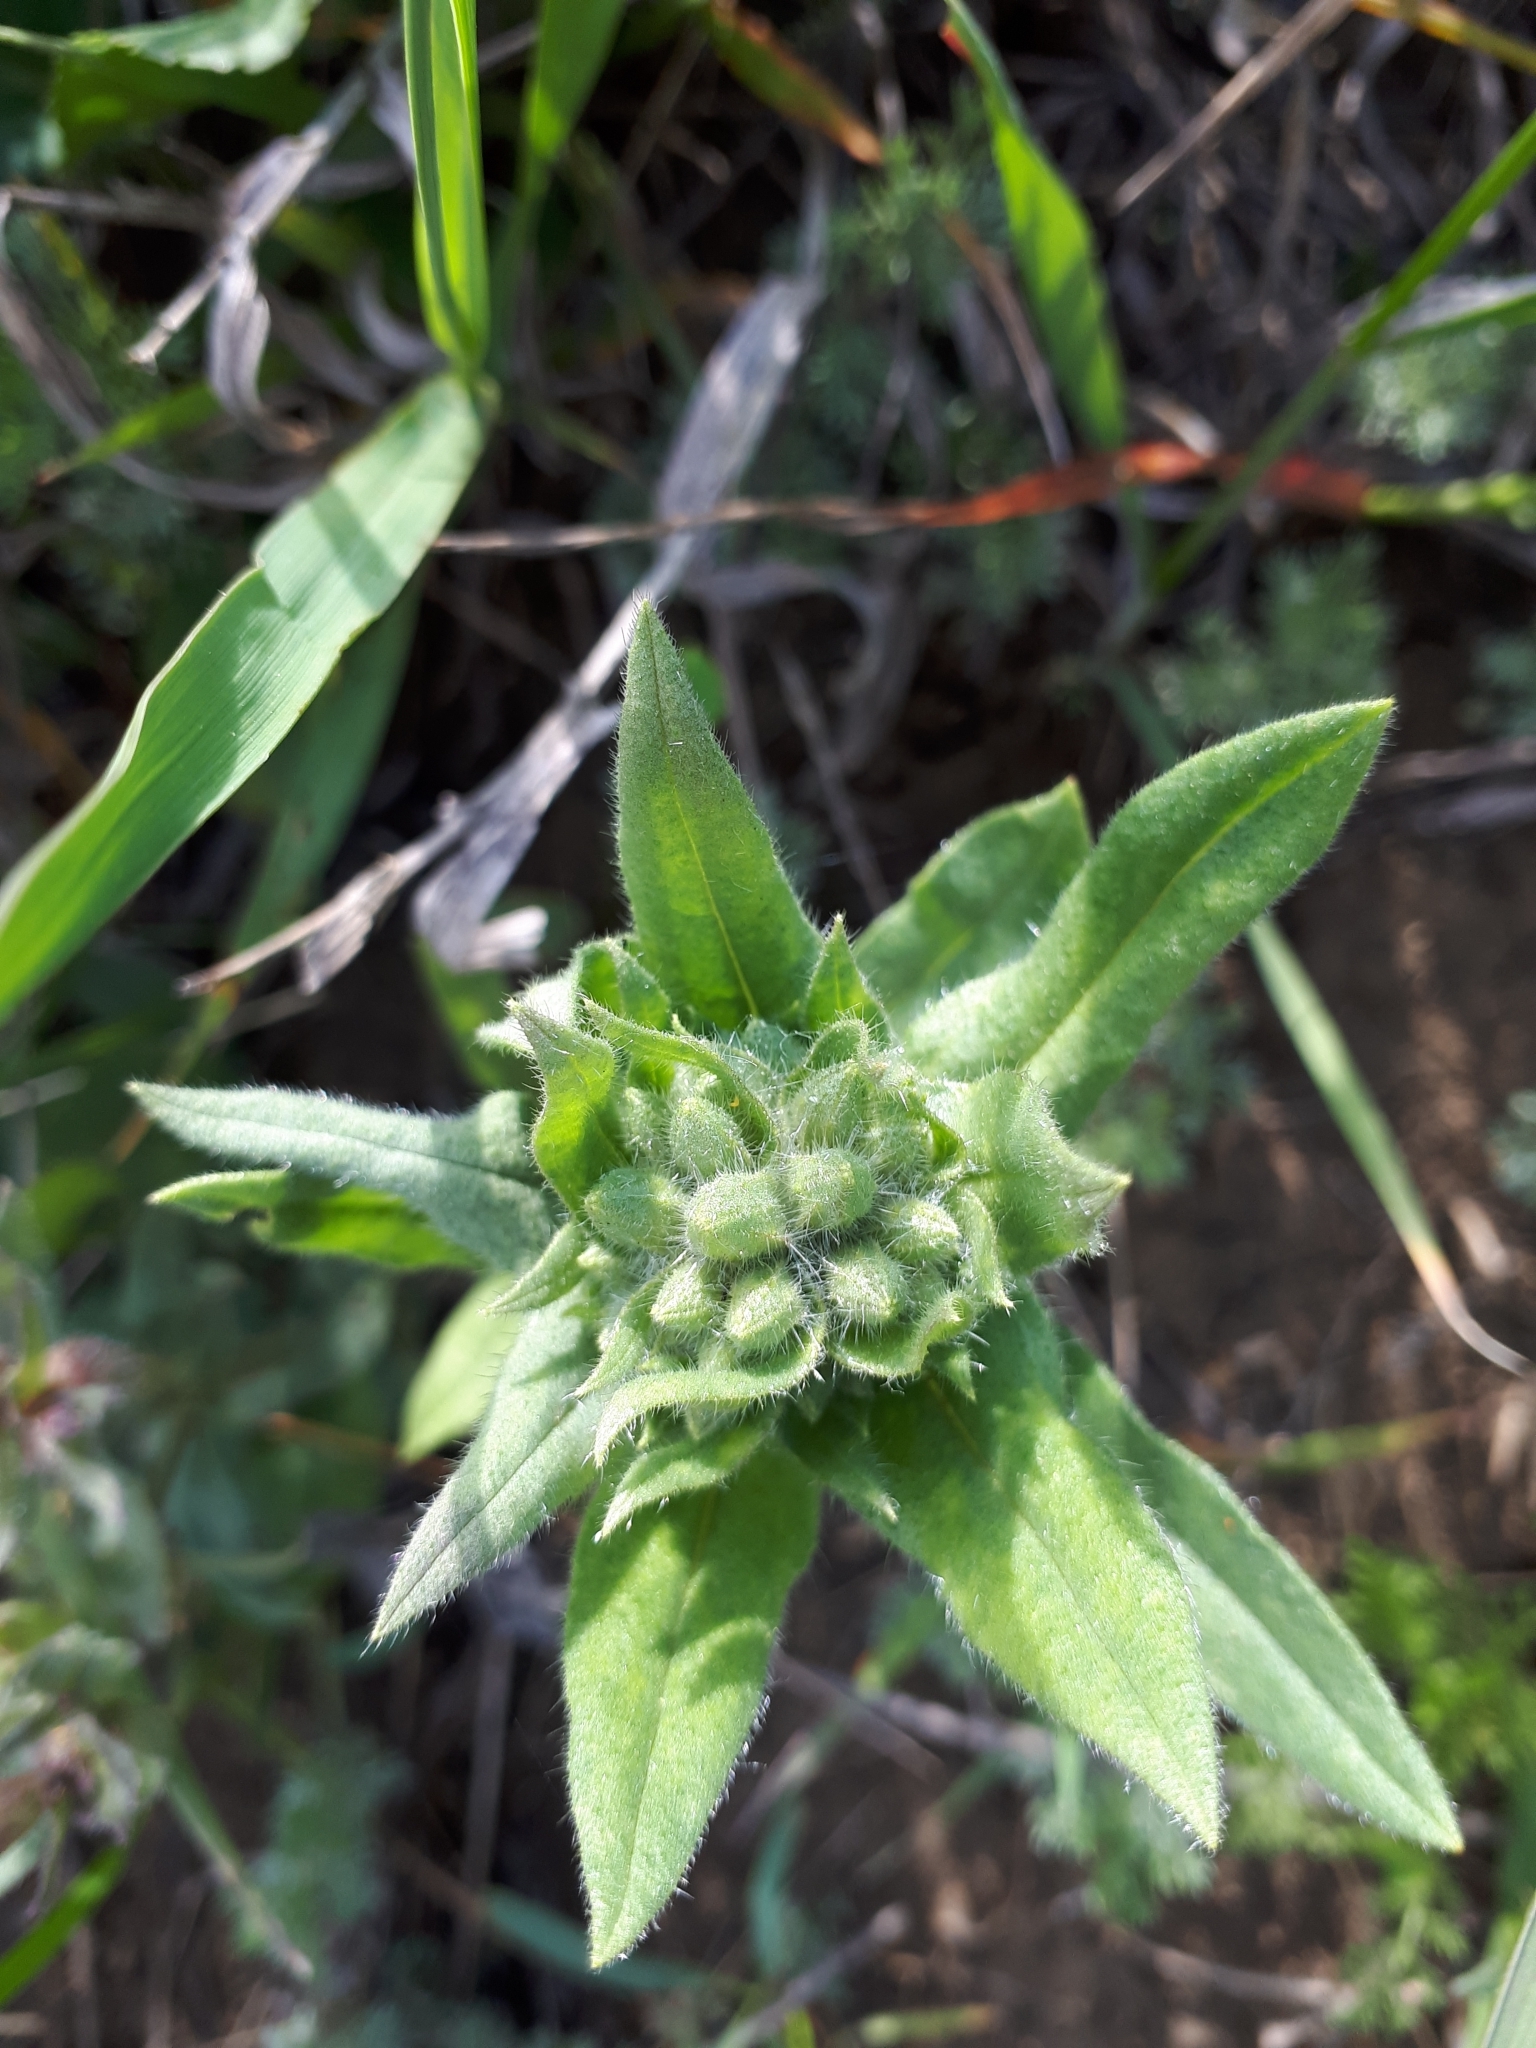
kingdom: Plantae
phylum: Tracheophyta
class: Magnoliopsida
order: Boraginales
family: Boraginaceae
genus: Echium
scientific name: Echium vulgare
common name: Common viper's bugloss
